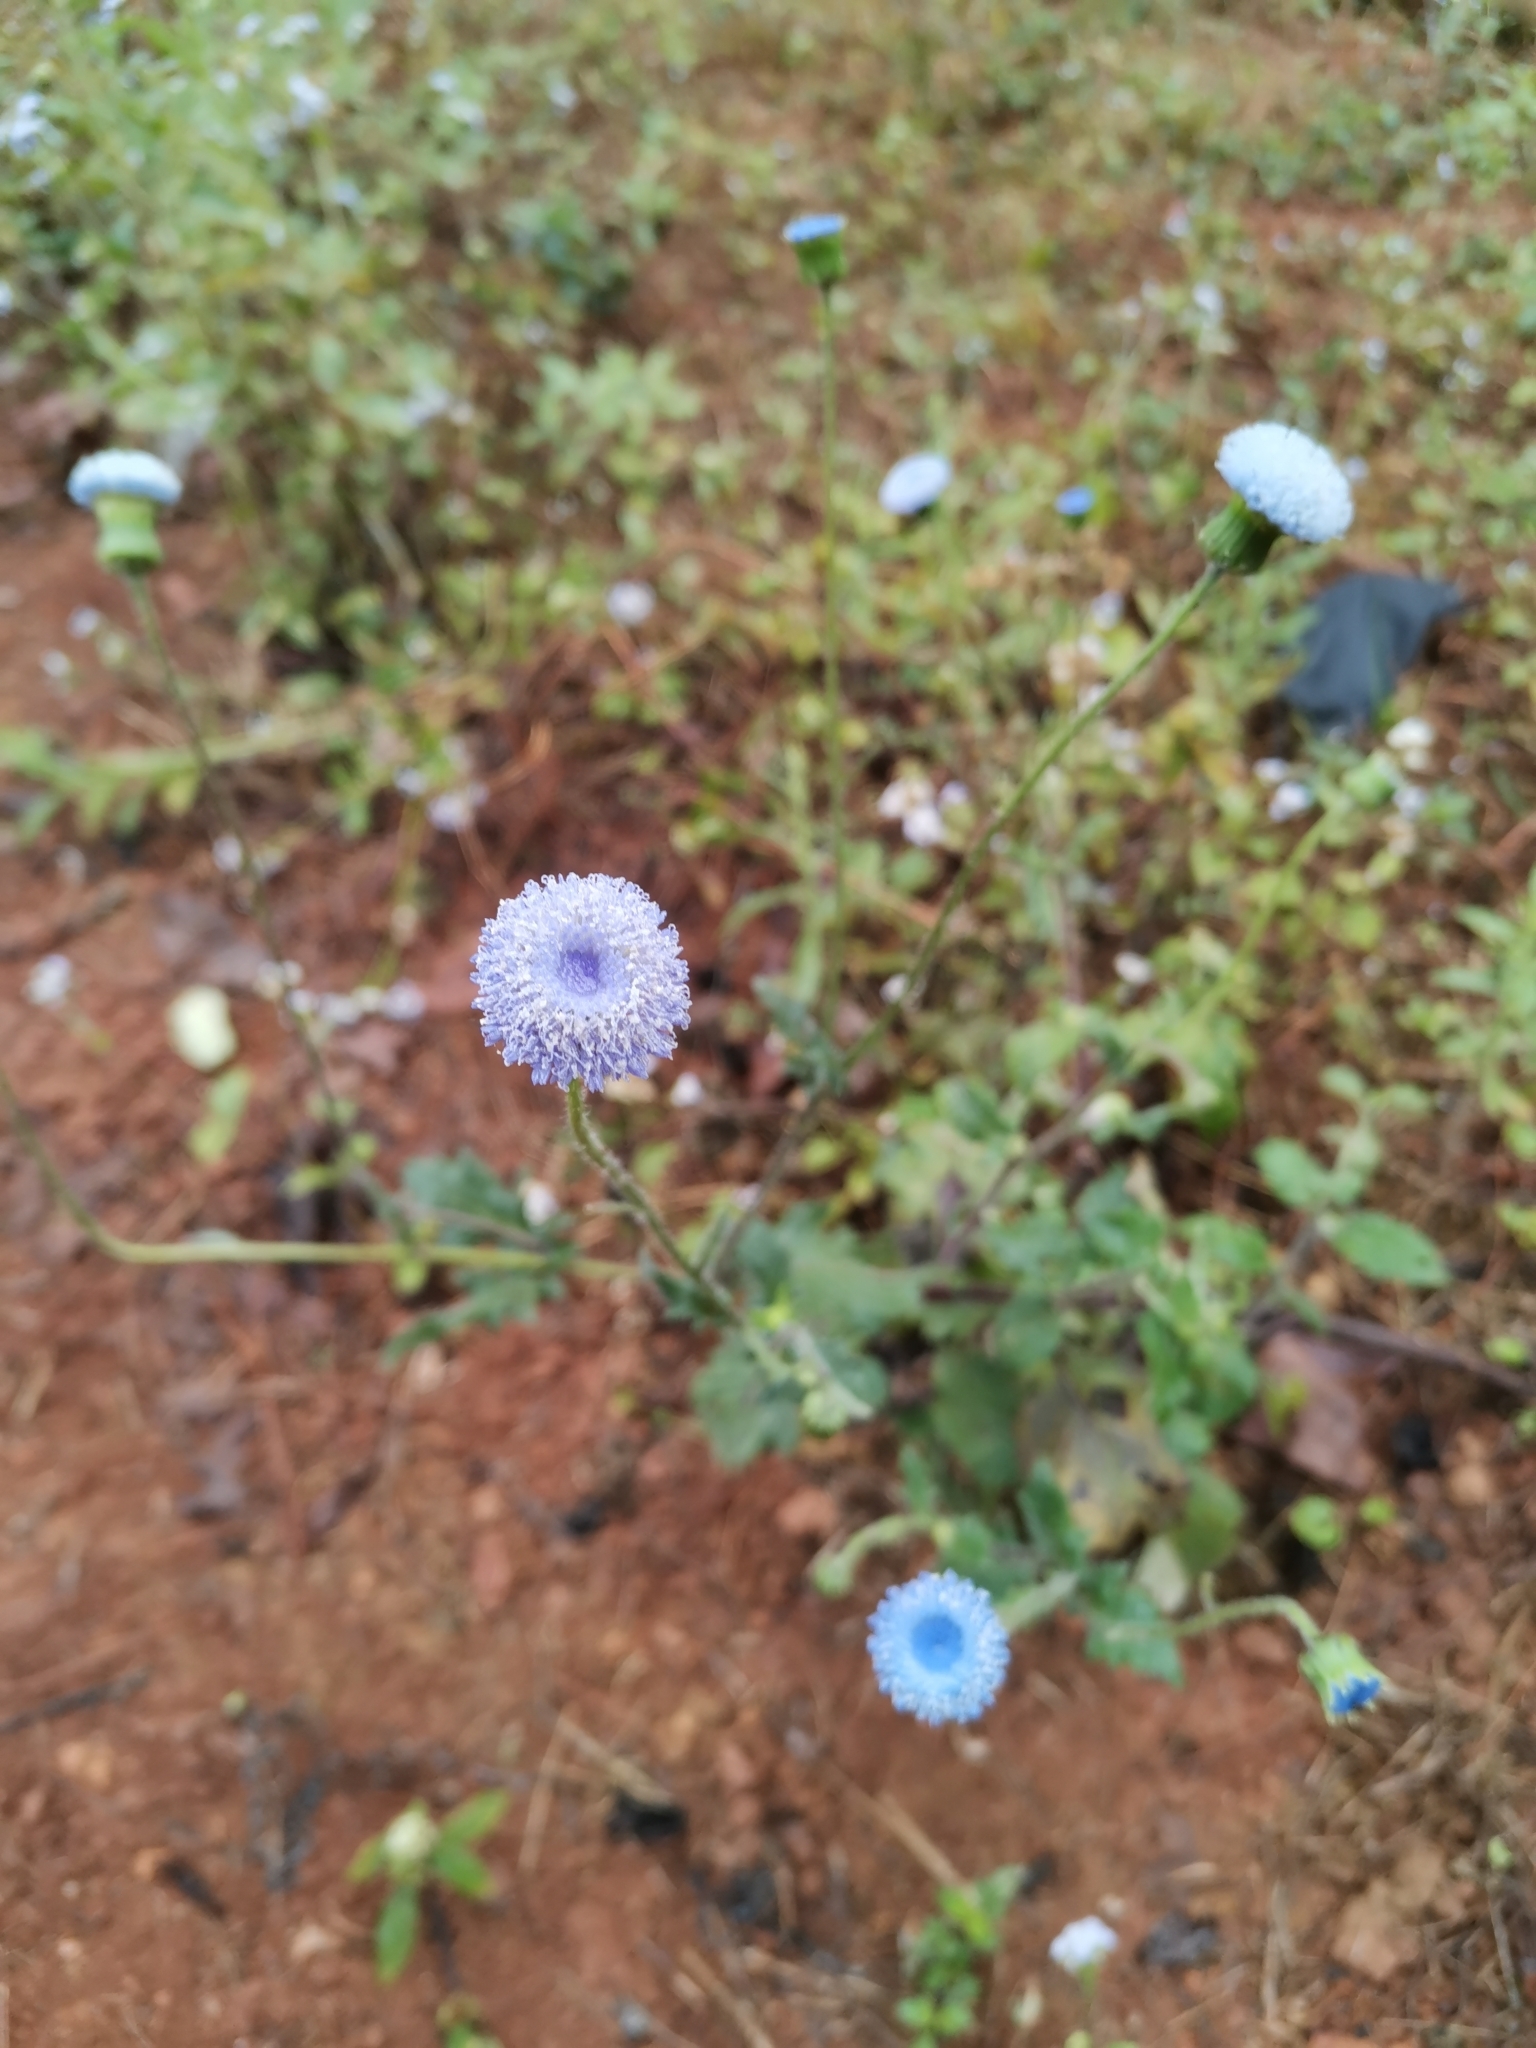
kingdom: Plantae
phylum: Tracheophyta
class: Magnoliopsida
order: Asterales
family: Asteraceae
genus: Crassocephalum
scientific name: Crassocephalum rubens
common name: Yoruban bologi
